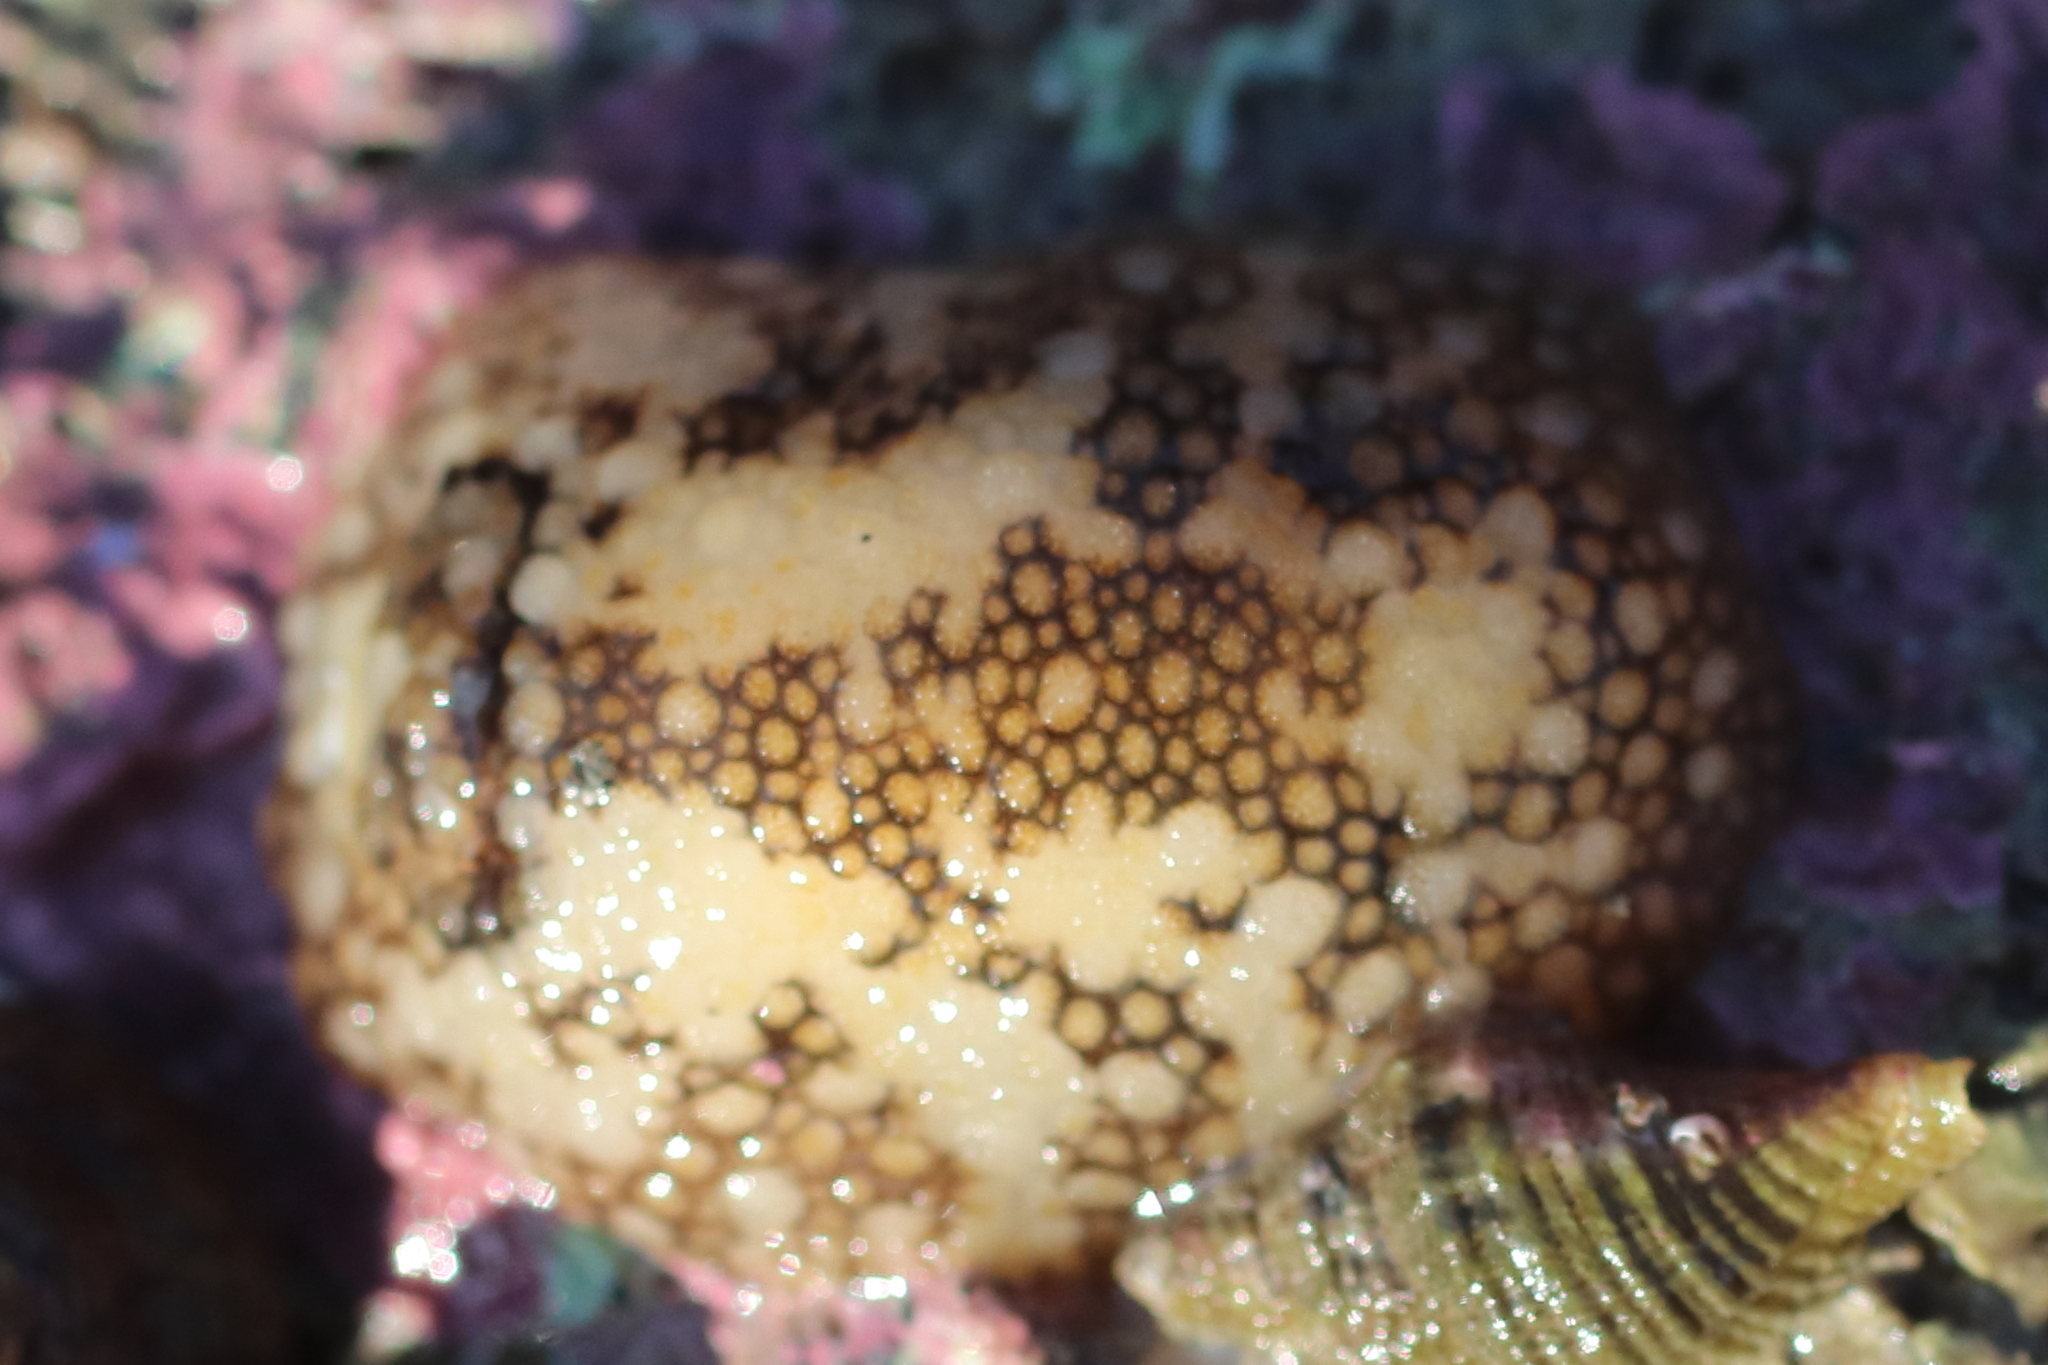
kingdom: Animalia
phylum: Mollusca
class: Gastropoda
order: Nudibranchia
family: Onchidorididae
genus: Onchidoris
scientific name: Onchidoris bilamellata
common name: Barnacle-eating onchidoris
